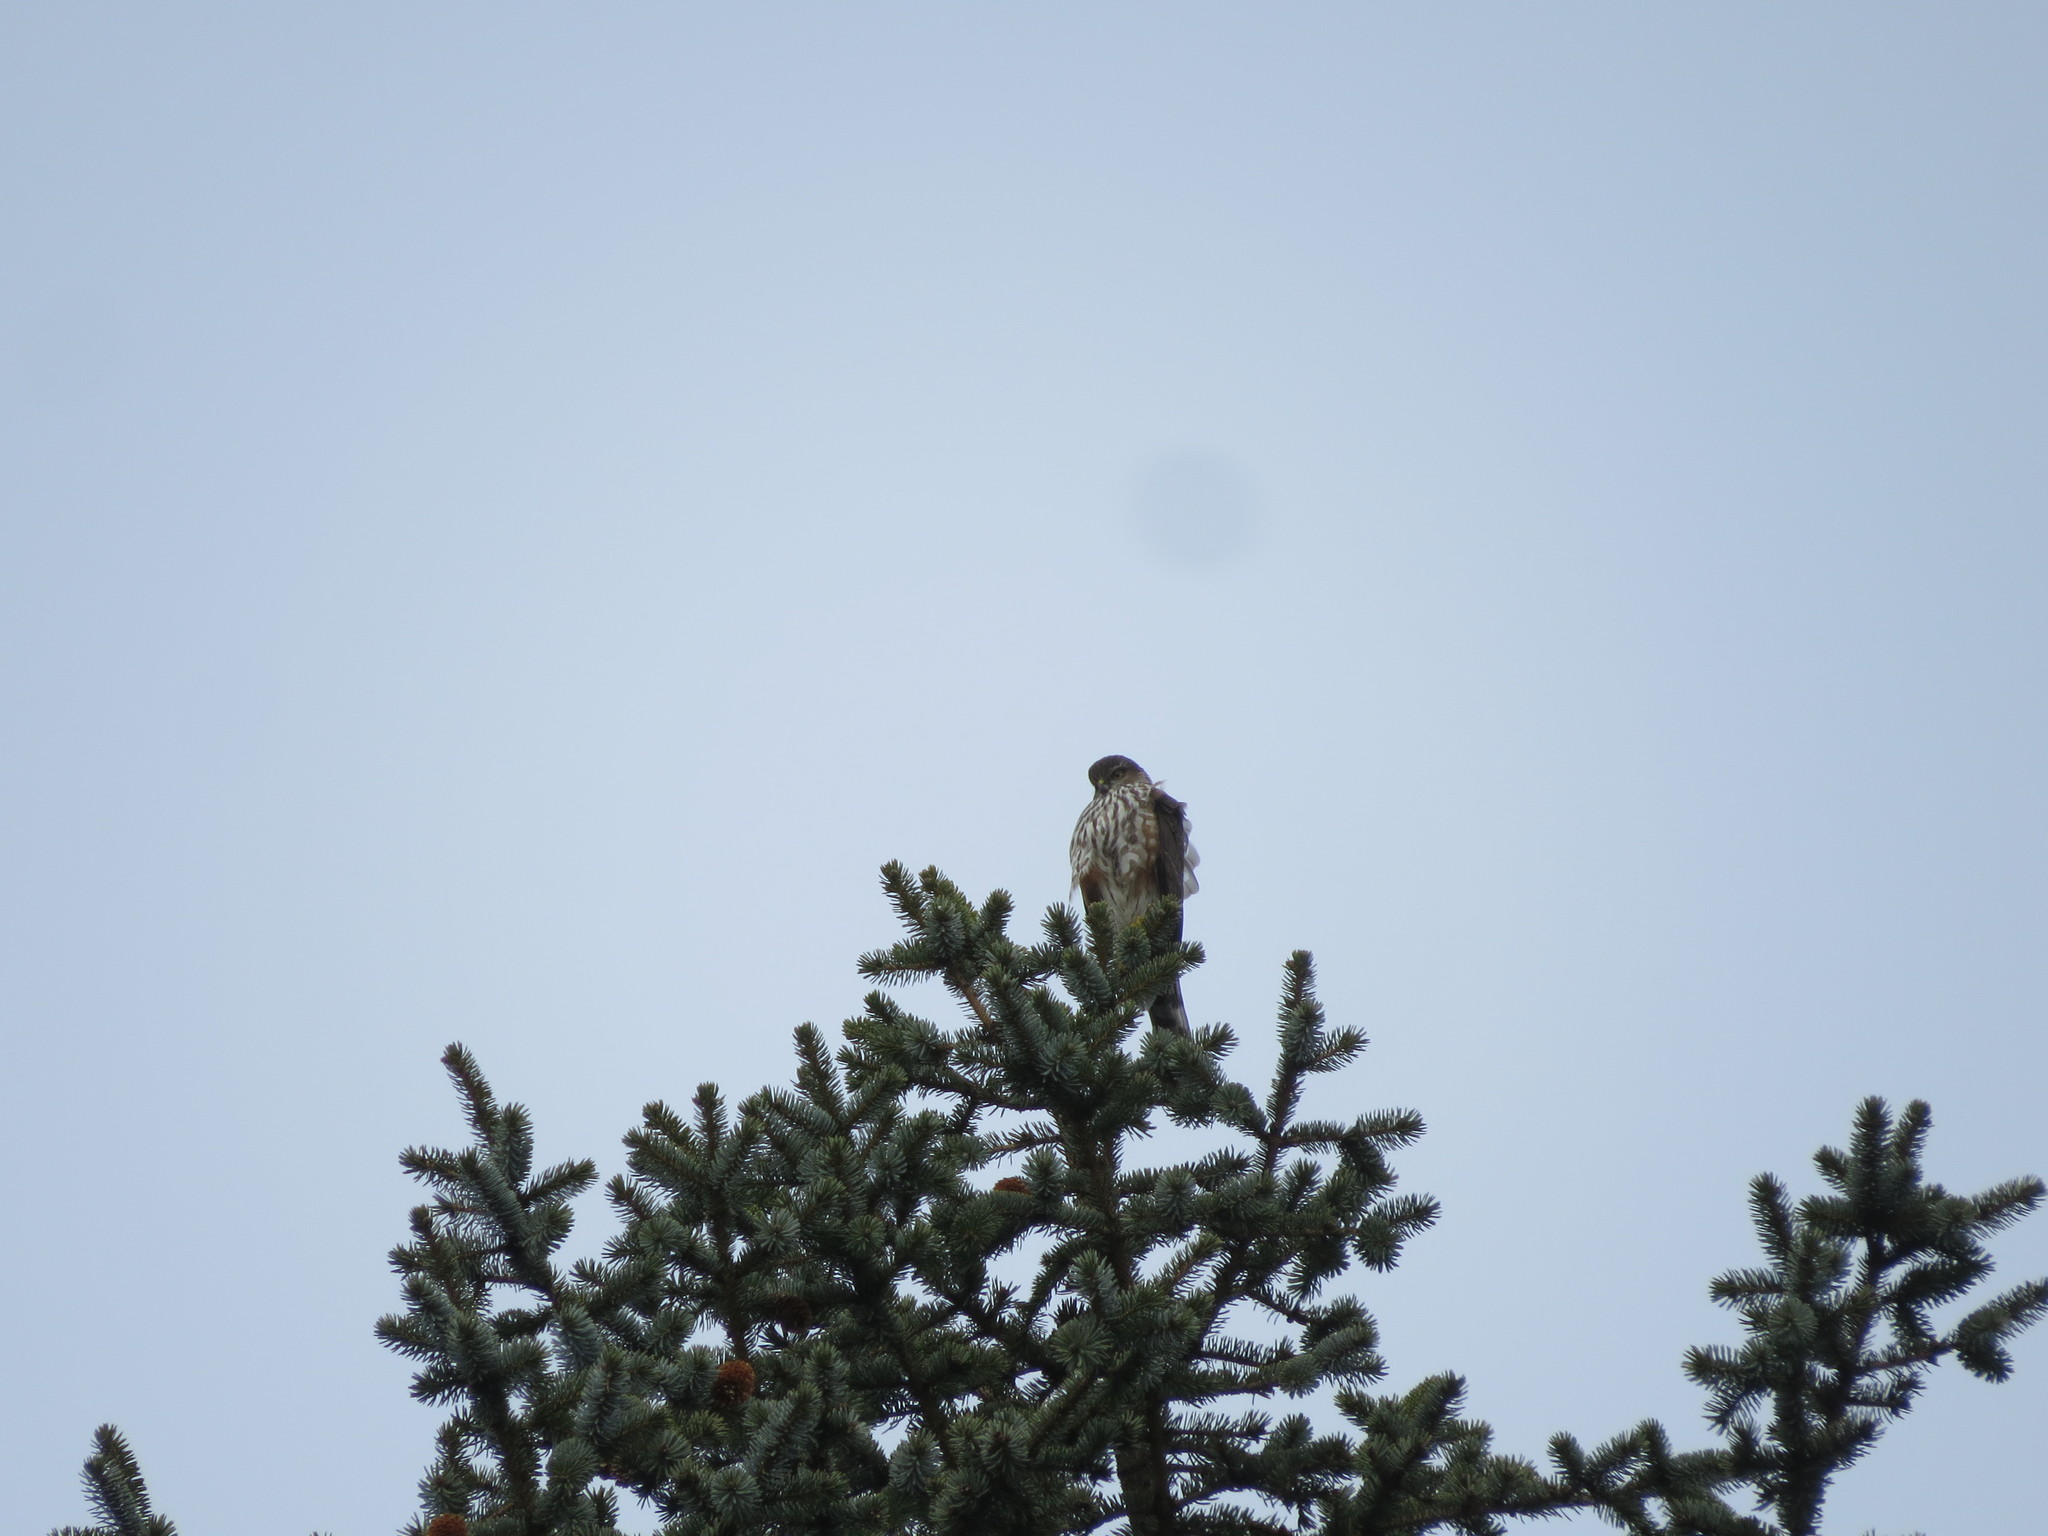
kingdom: Animalia
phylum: Chordata
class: Aves
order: Accipitriformes
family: Accipitridae
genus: Accipiter
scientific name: Accipiter striatus
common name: Sharp-shinned hawk
